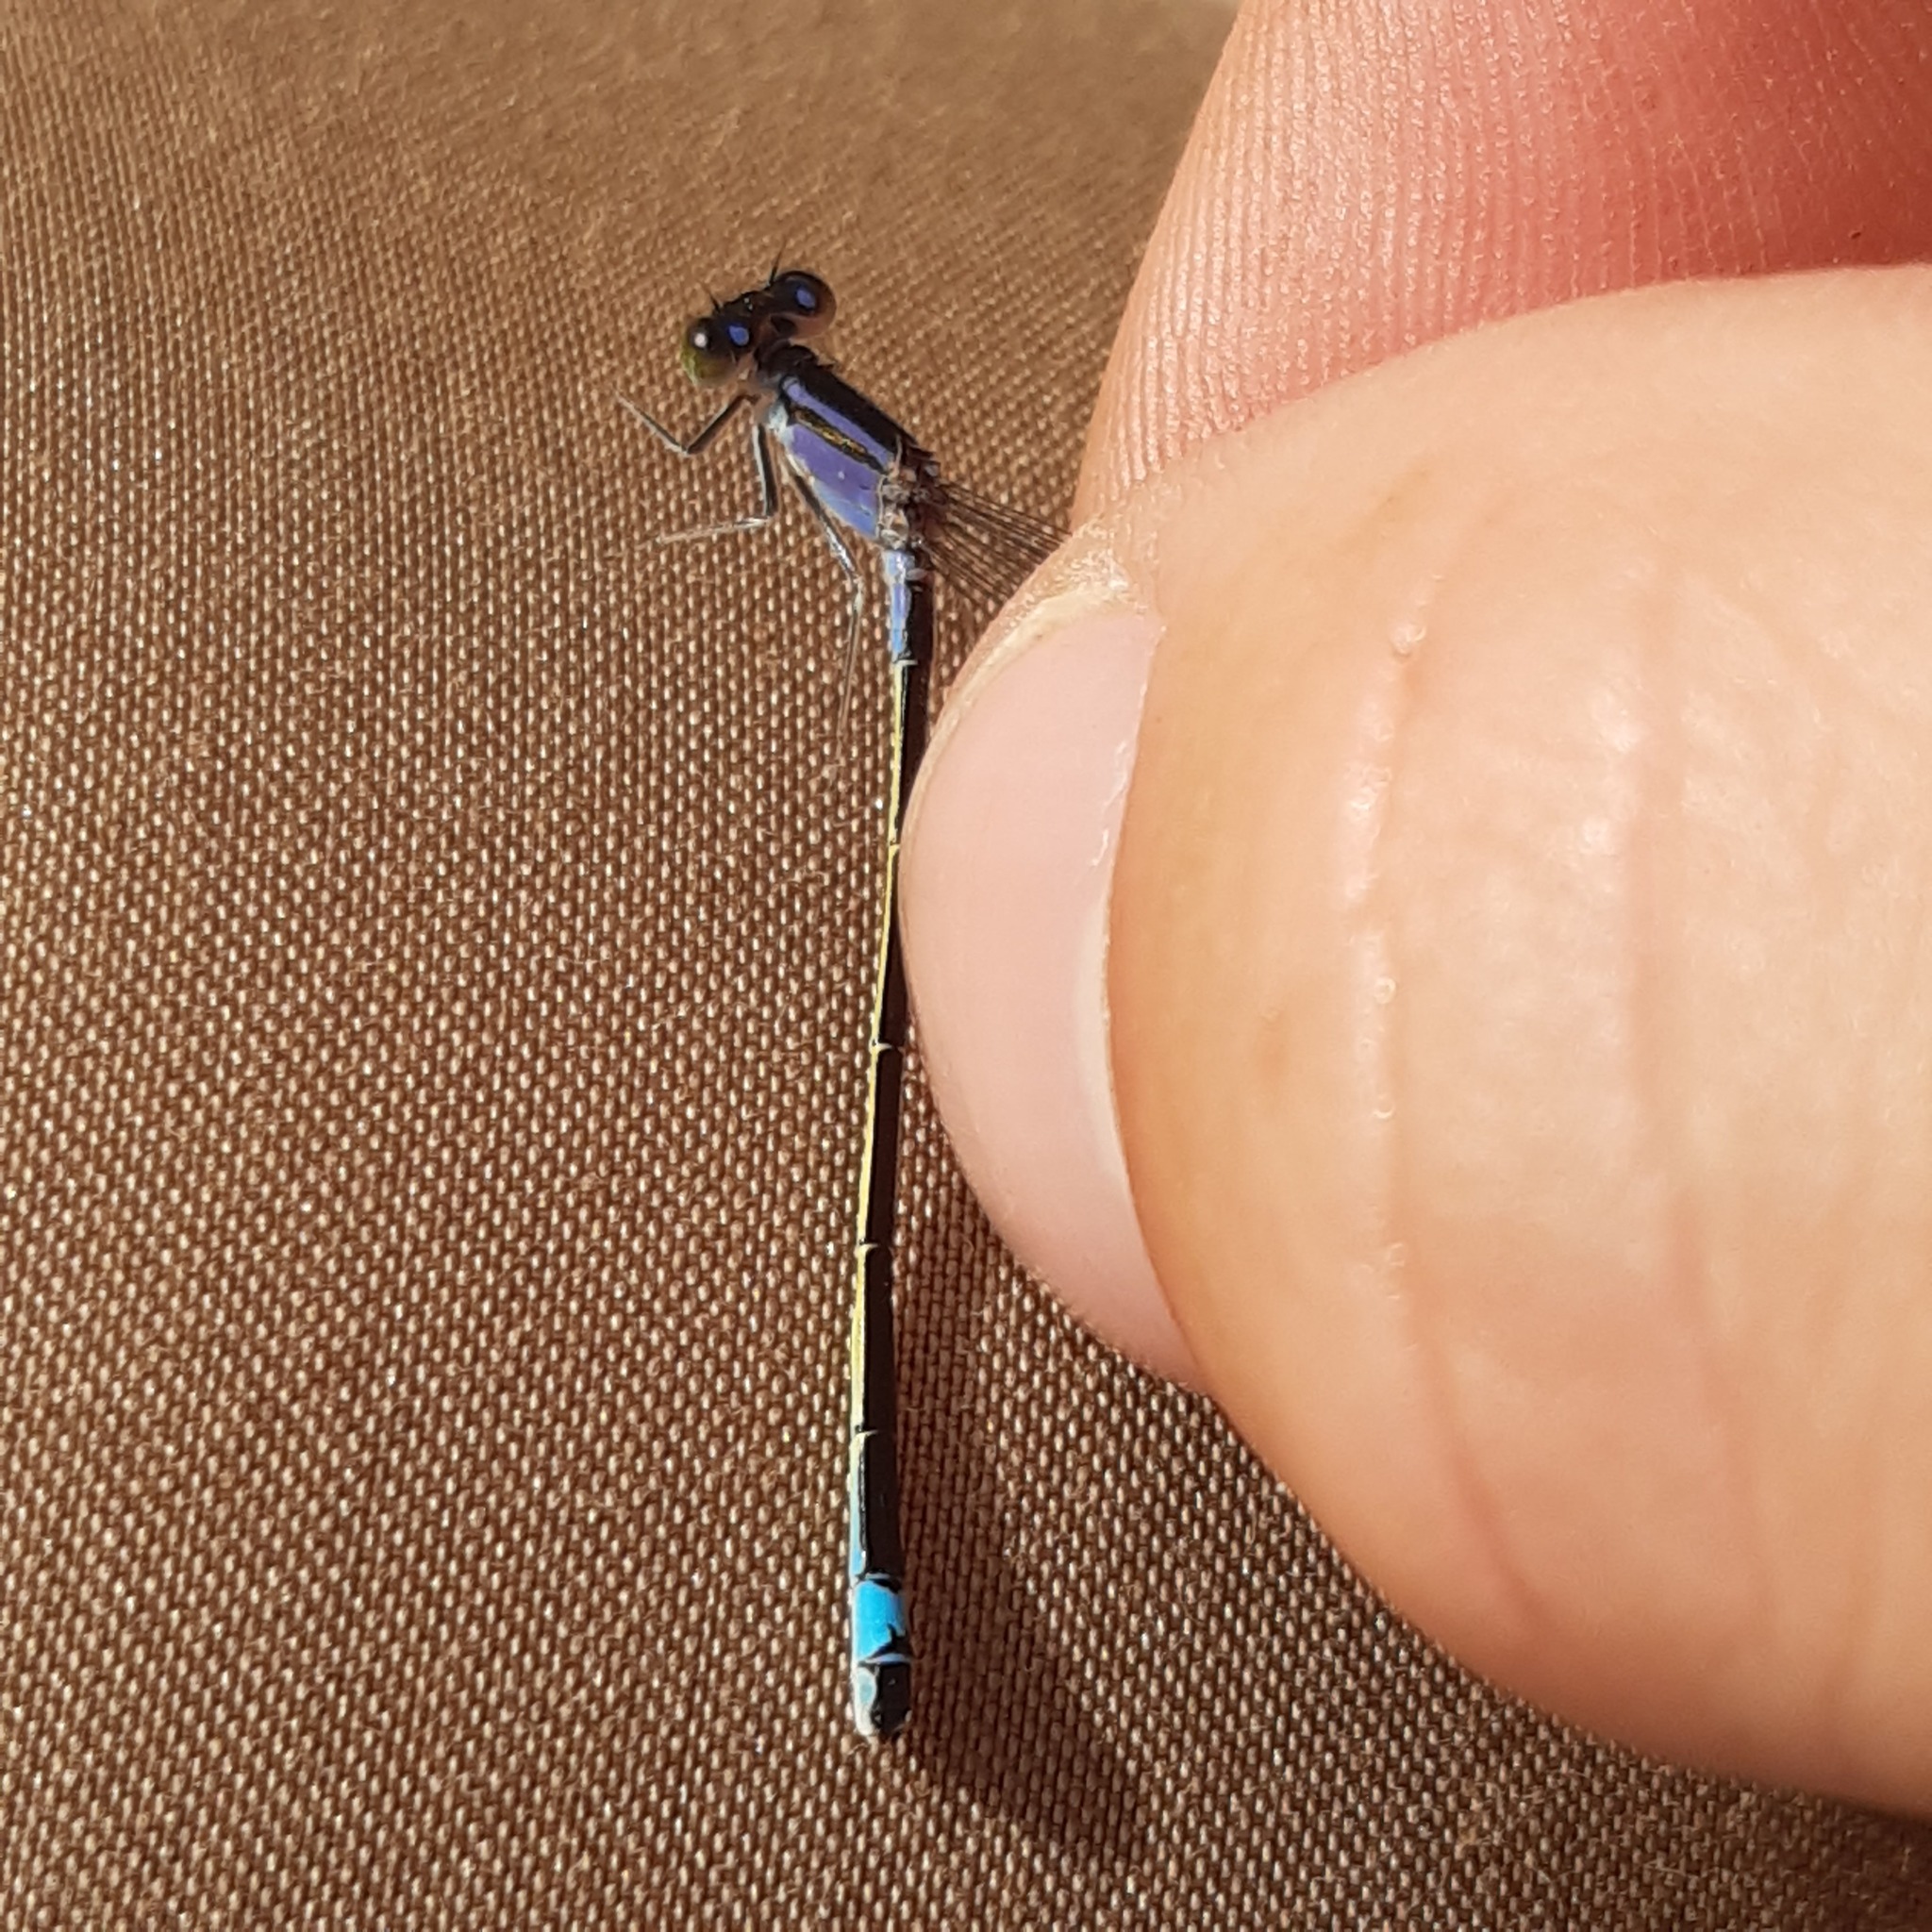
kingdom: Animalia
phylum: Arthropoda
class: Insecta
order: Odonata
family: Coenagrionidae
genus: Ischnura
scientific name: Ischnura elegans
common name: Blue-tailed damselfly
